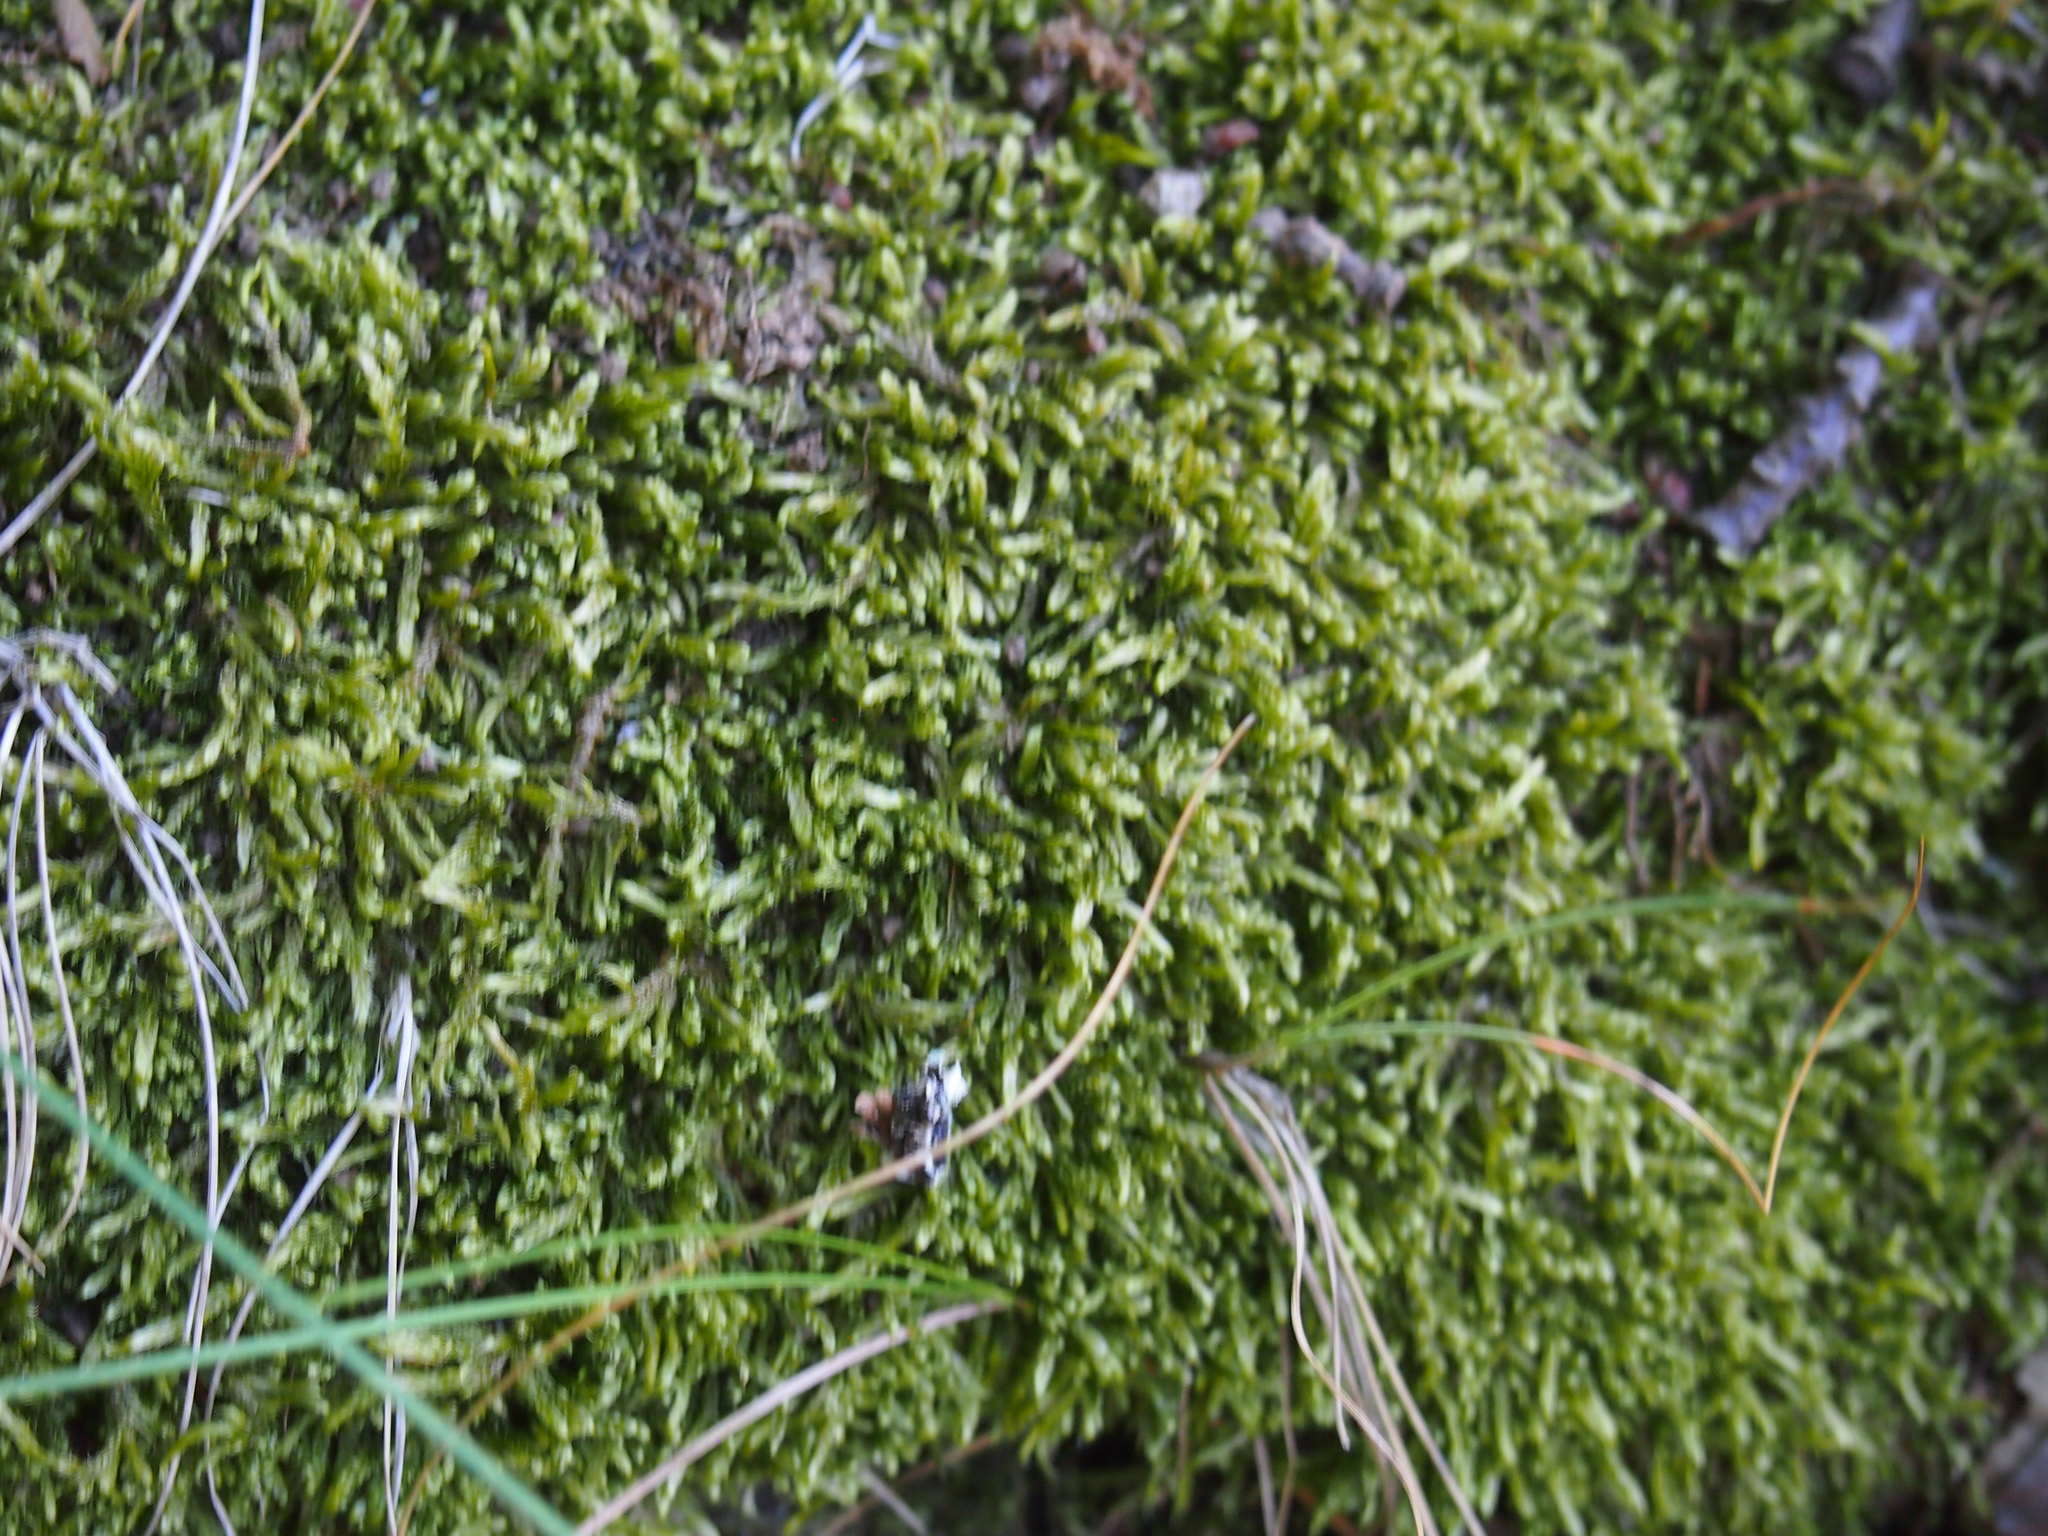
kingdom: Plantae
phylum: Bryophyta
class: Bryopsida
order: Hypnales
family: Hypnaceae
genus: Hypnum
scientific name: Hypnum cupressiforme
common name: Cypress-leaved plait-moss
